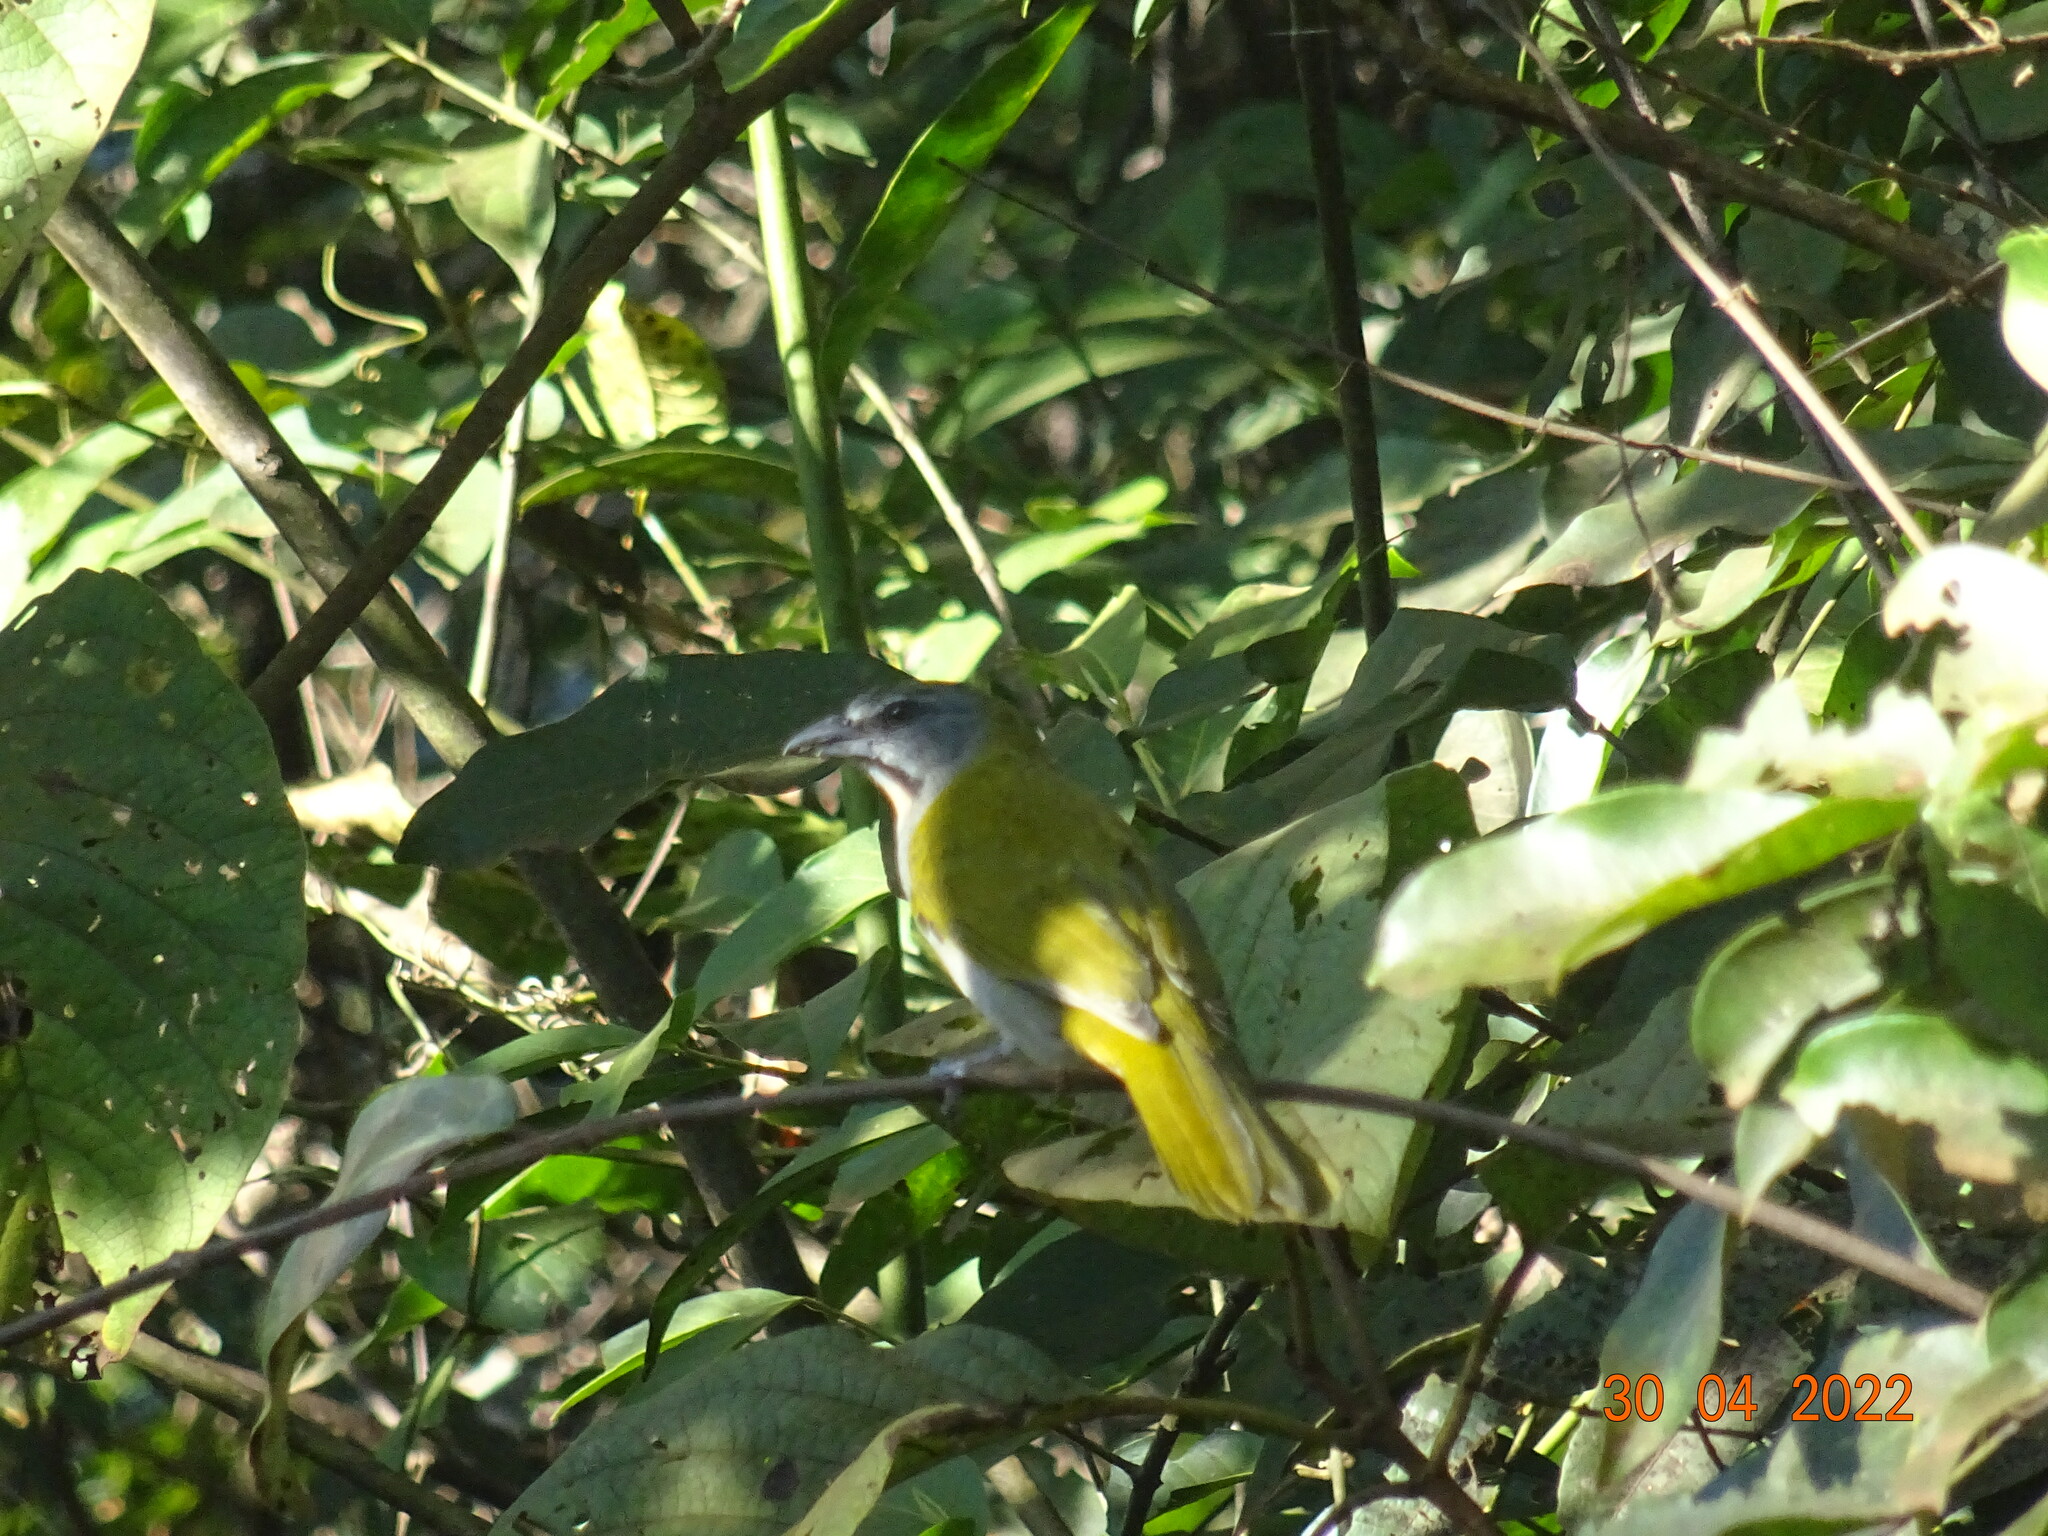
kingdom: Animalia
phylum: Chordata
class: Aves
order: Passeriformes
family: Thraupidae
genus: Saltator
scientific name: Saltator maximus
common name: Buff-throated saltator
